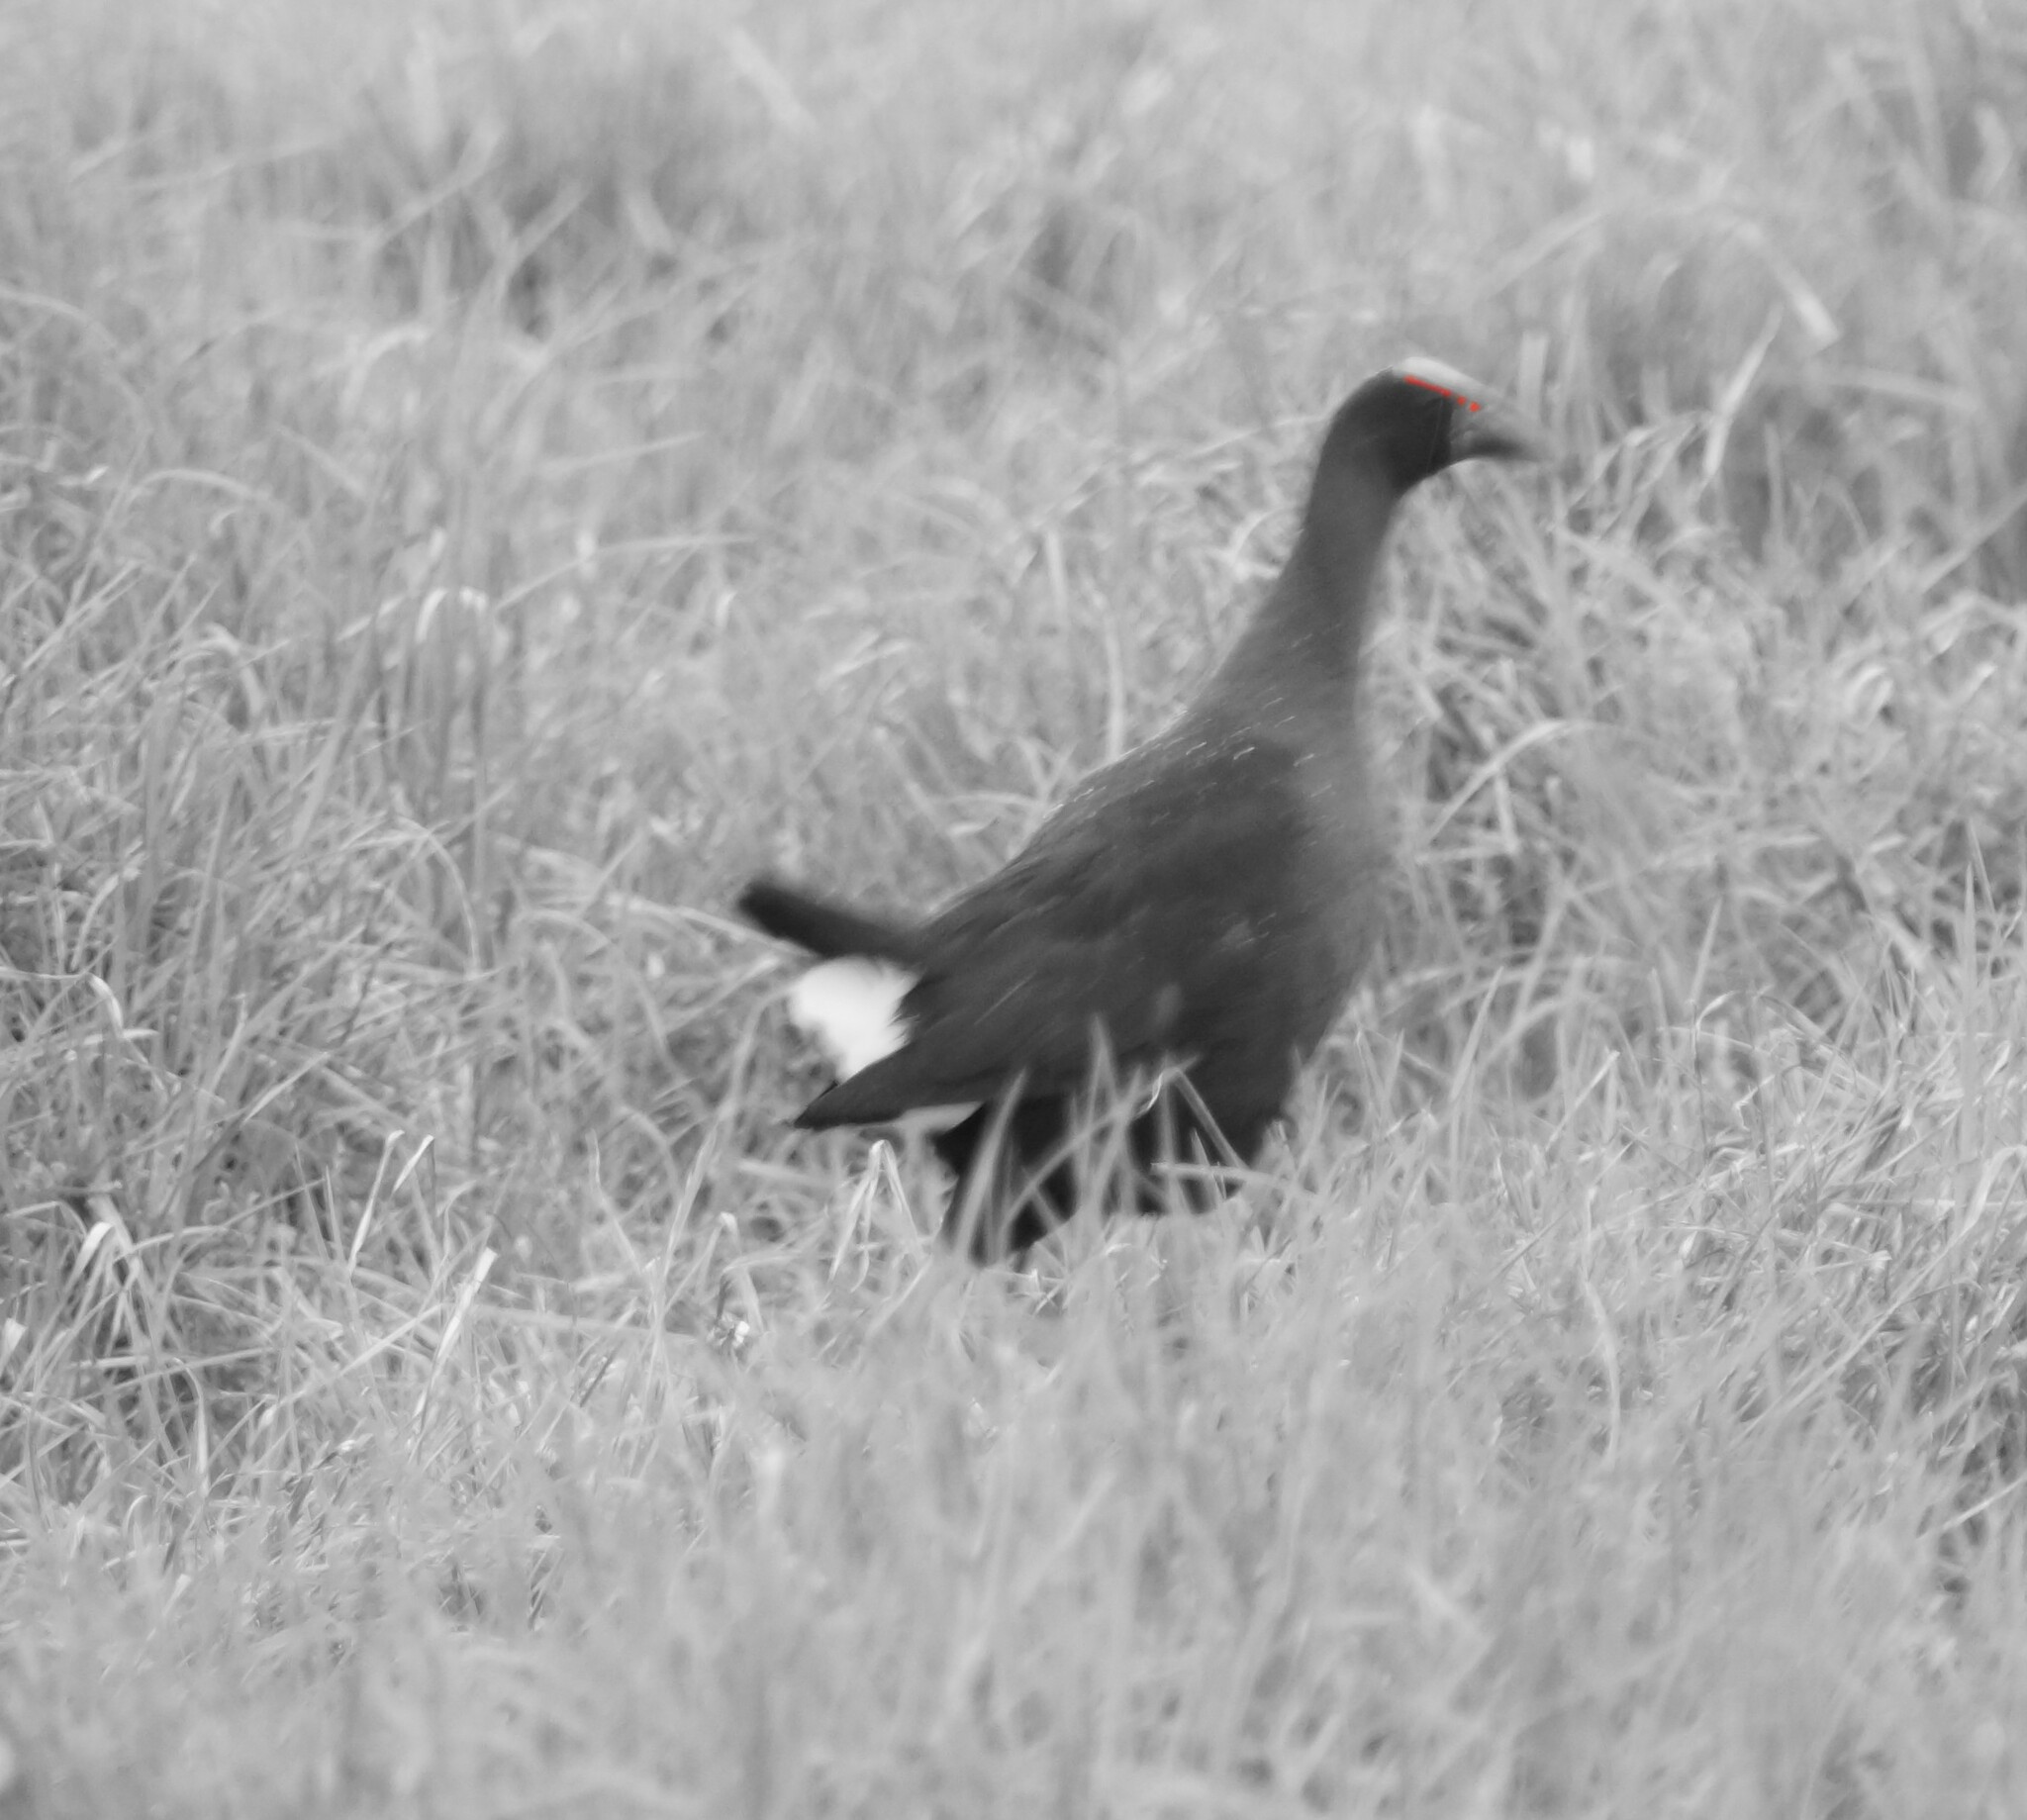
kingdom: Animalia
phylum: Chordata
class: Aves
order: Gruiformes
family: Rallidae
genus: Porphyrio
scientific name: Porphyrio melanotus
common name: Australasian swamphen
